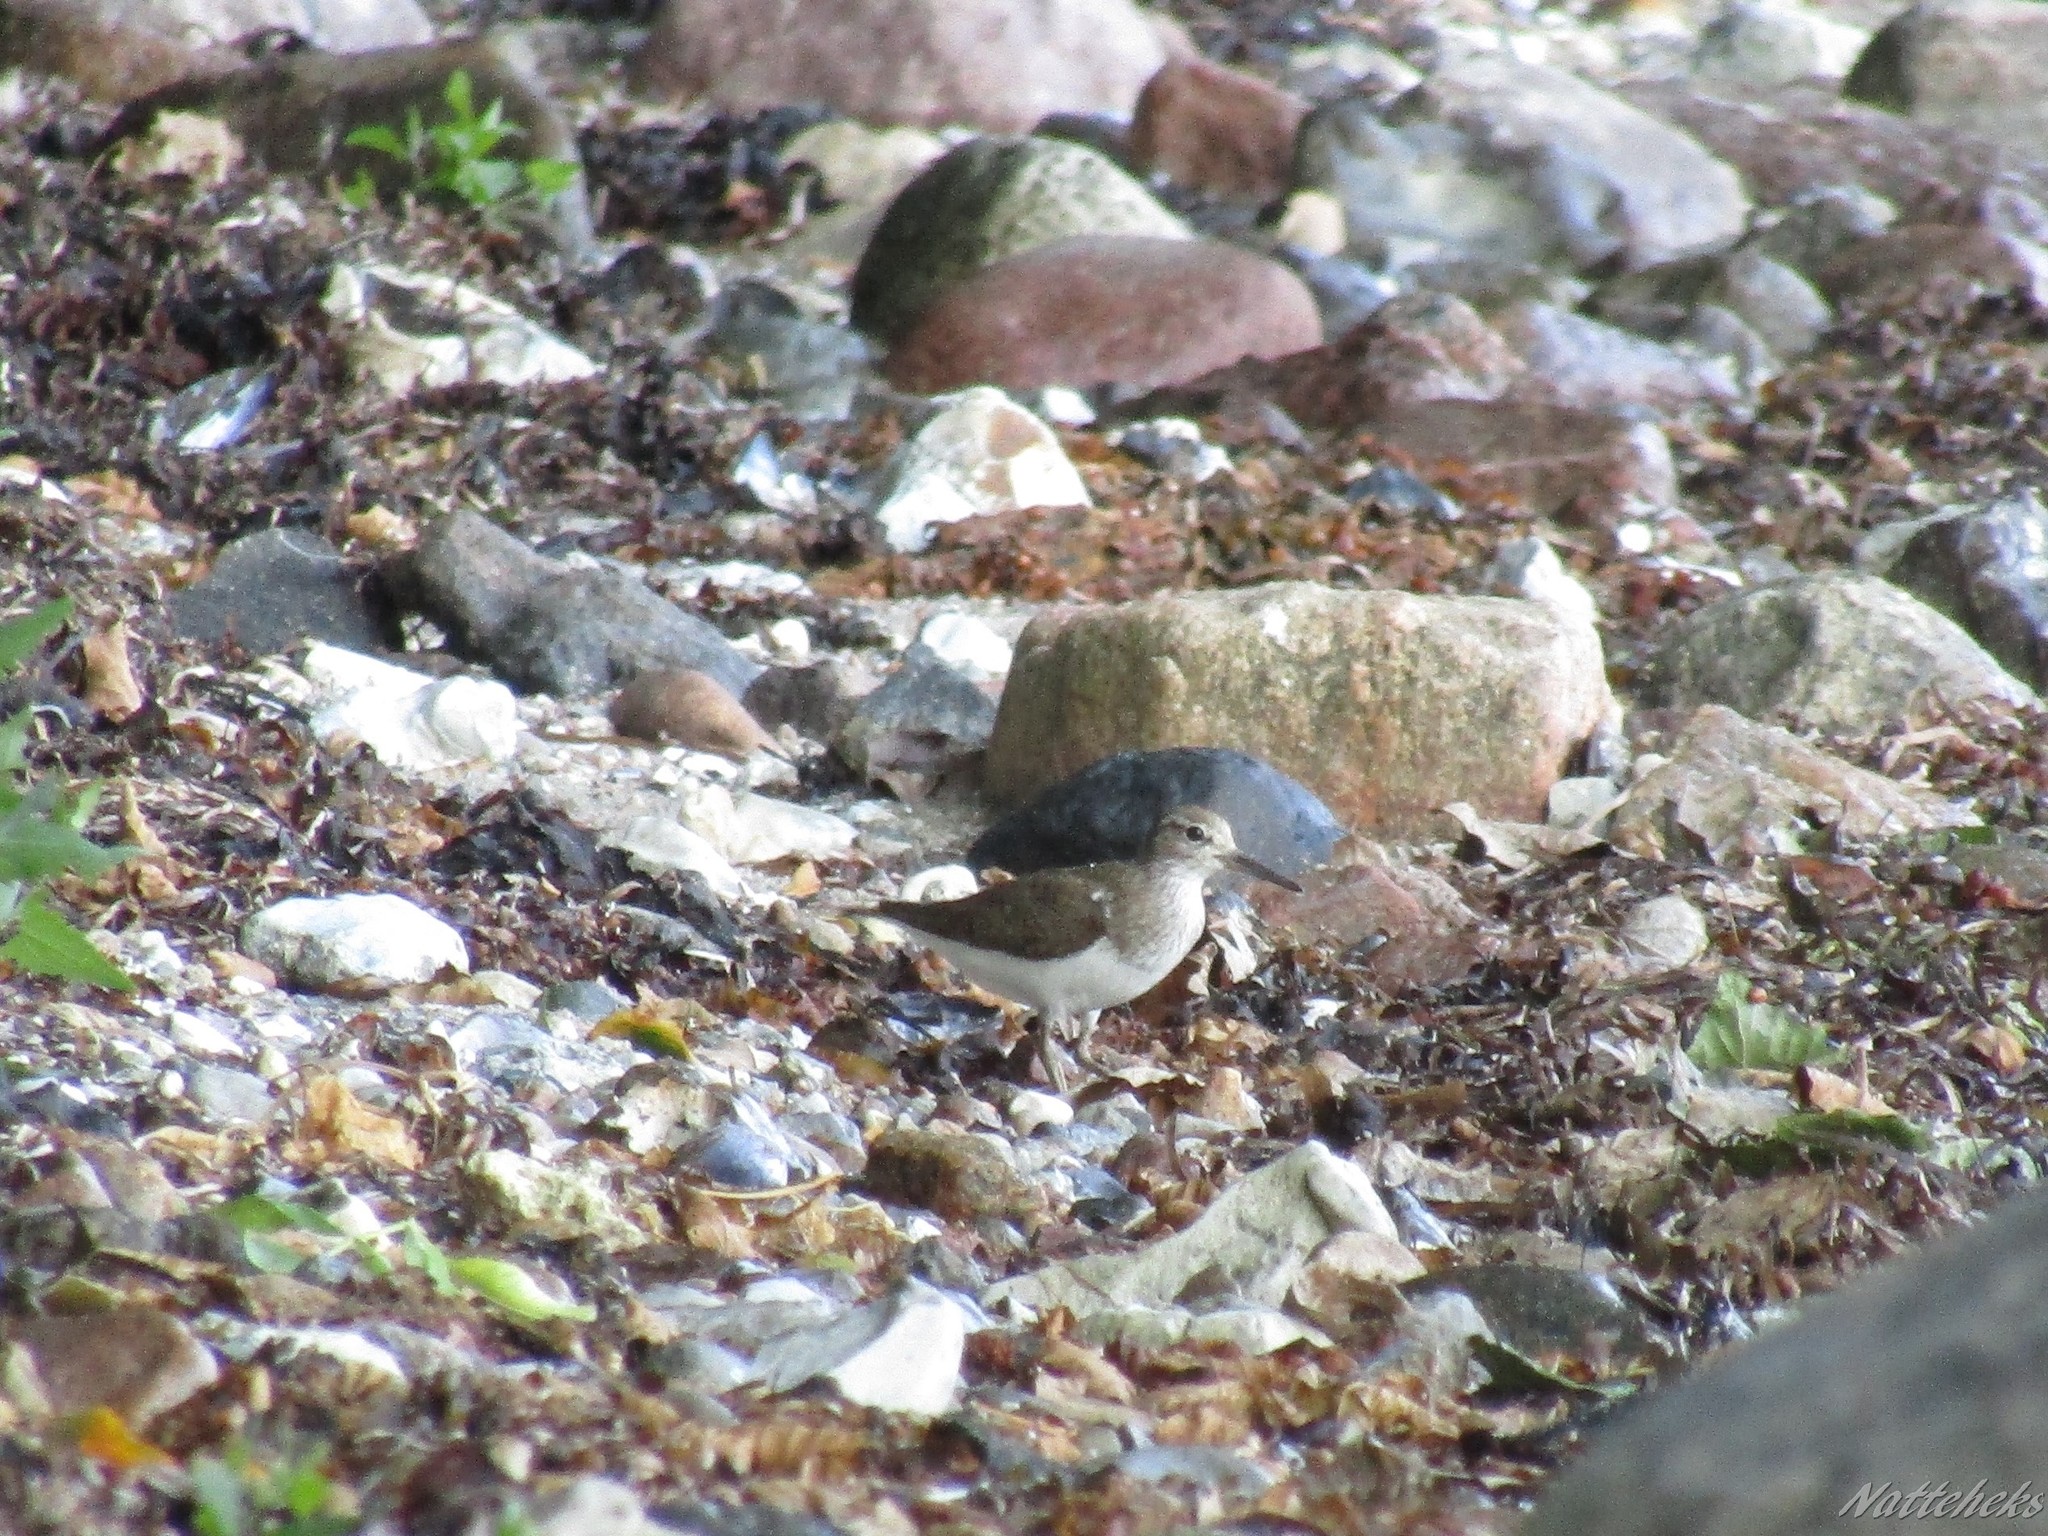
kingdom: Animalia
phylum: Chordata
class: Aves
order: Charadriiformes
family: Scolopacidae
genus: Actitis
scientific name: Actitis hypoleucos
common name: Common sandpiper
